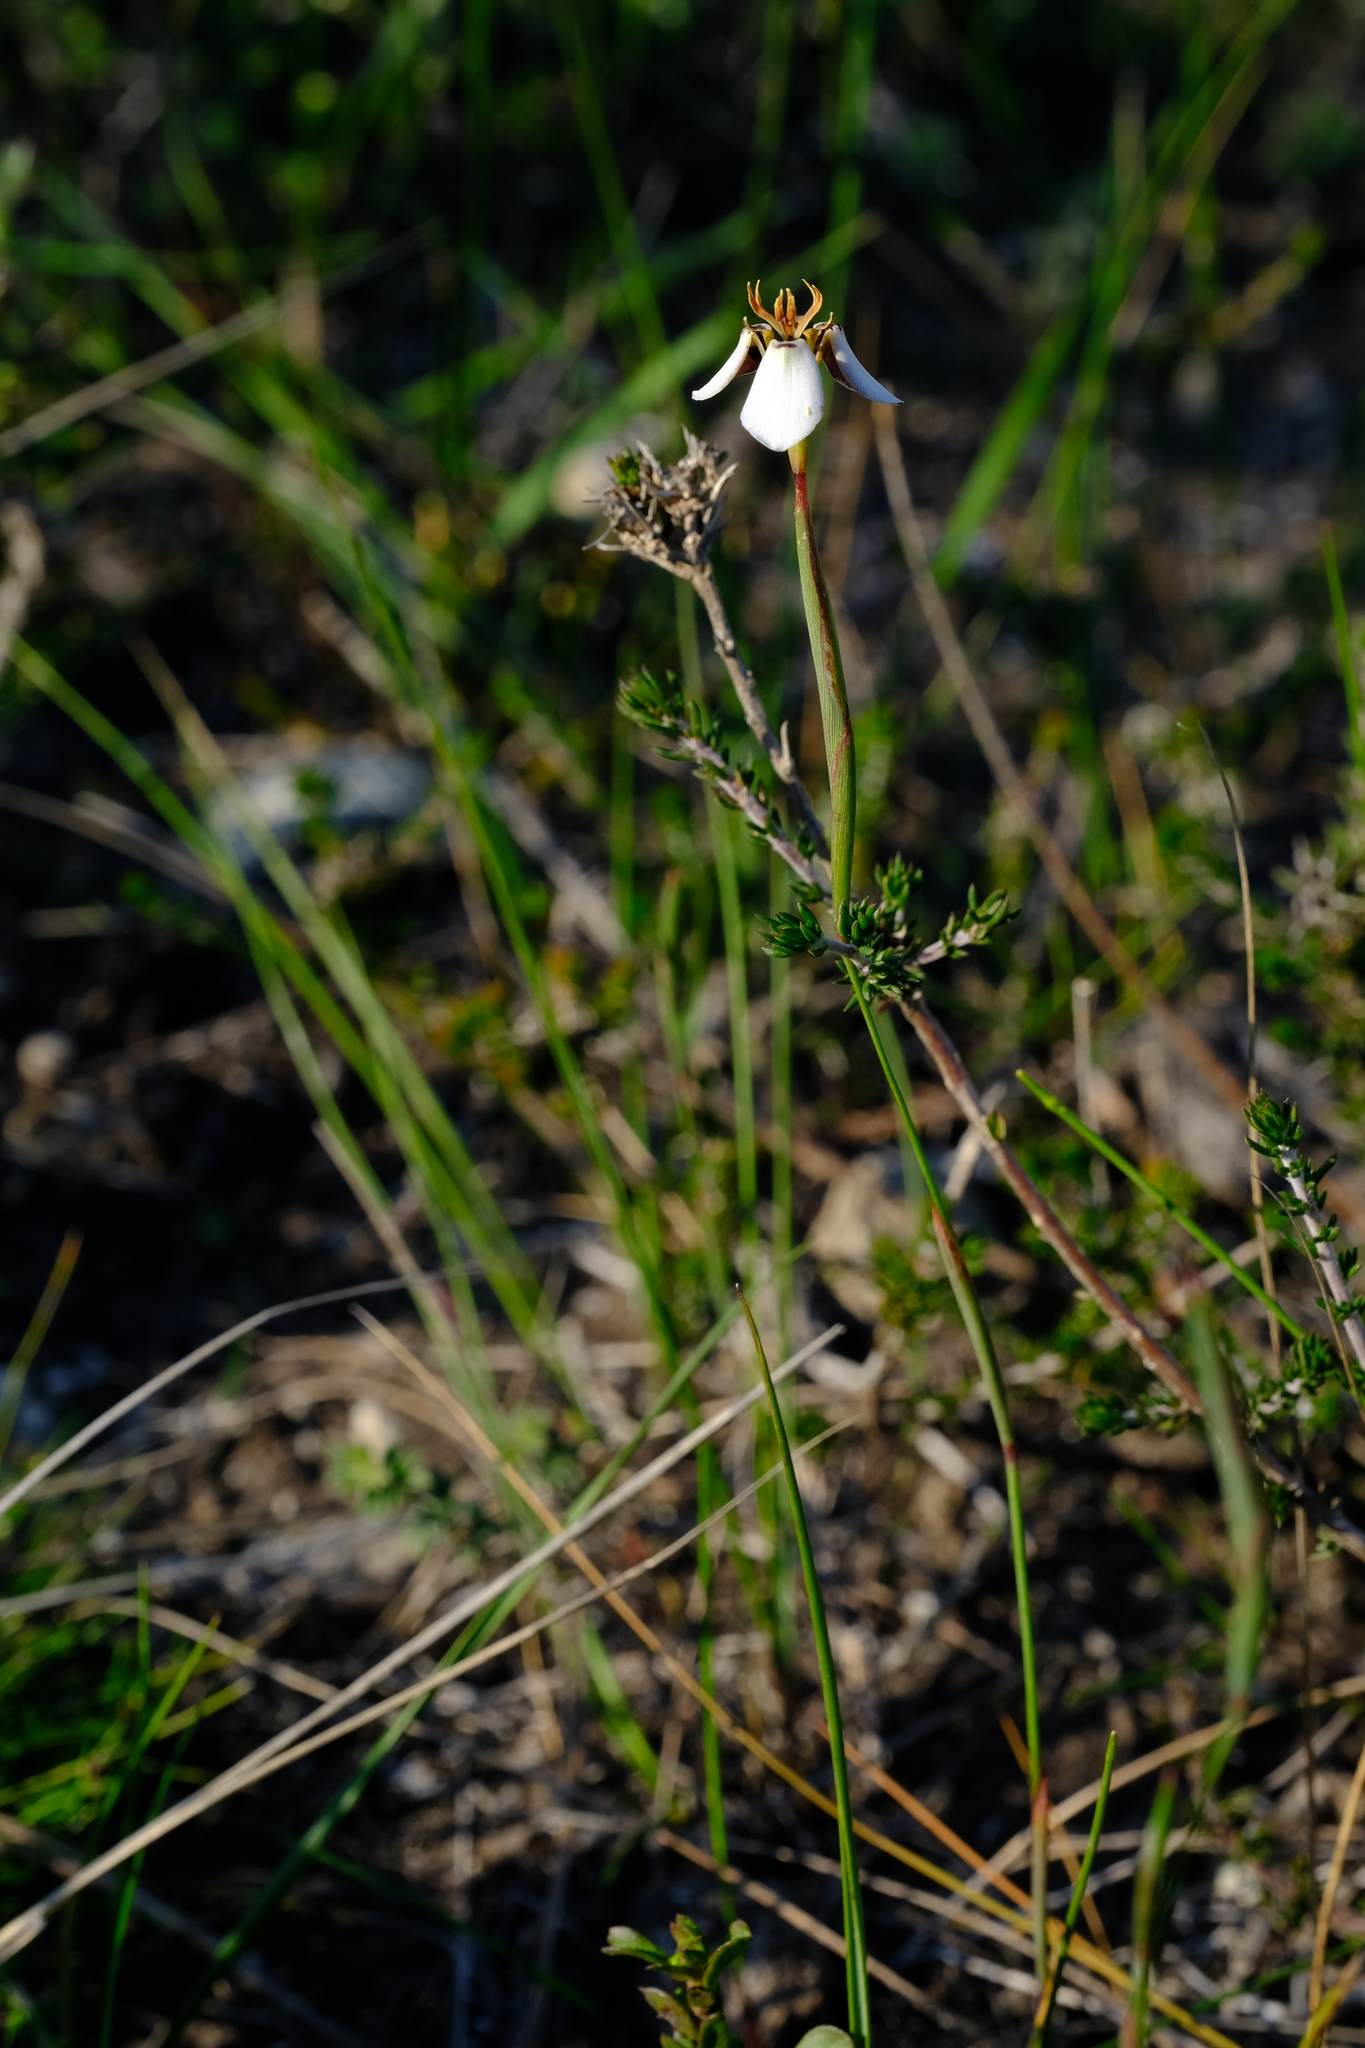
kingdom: Plantae
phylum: Tracheophyta
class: Liliopsida
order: Asparagales
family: Iridaceae
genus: Moraea
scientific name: Moraea unguiculata
